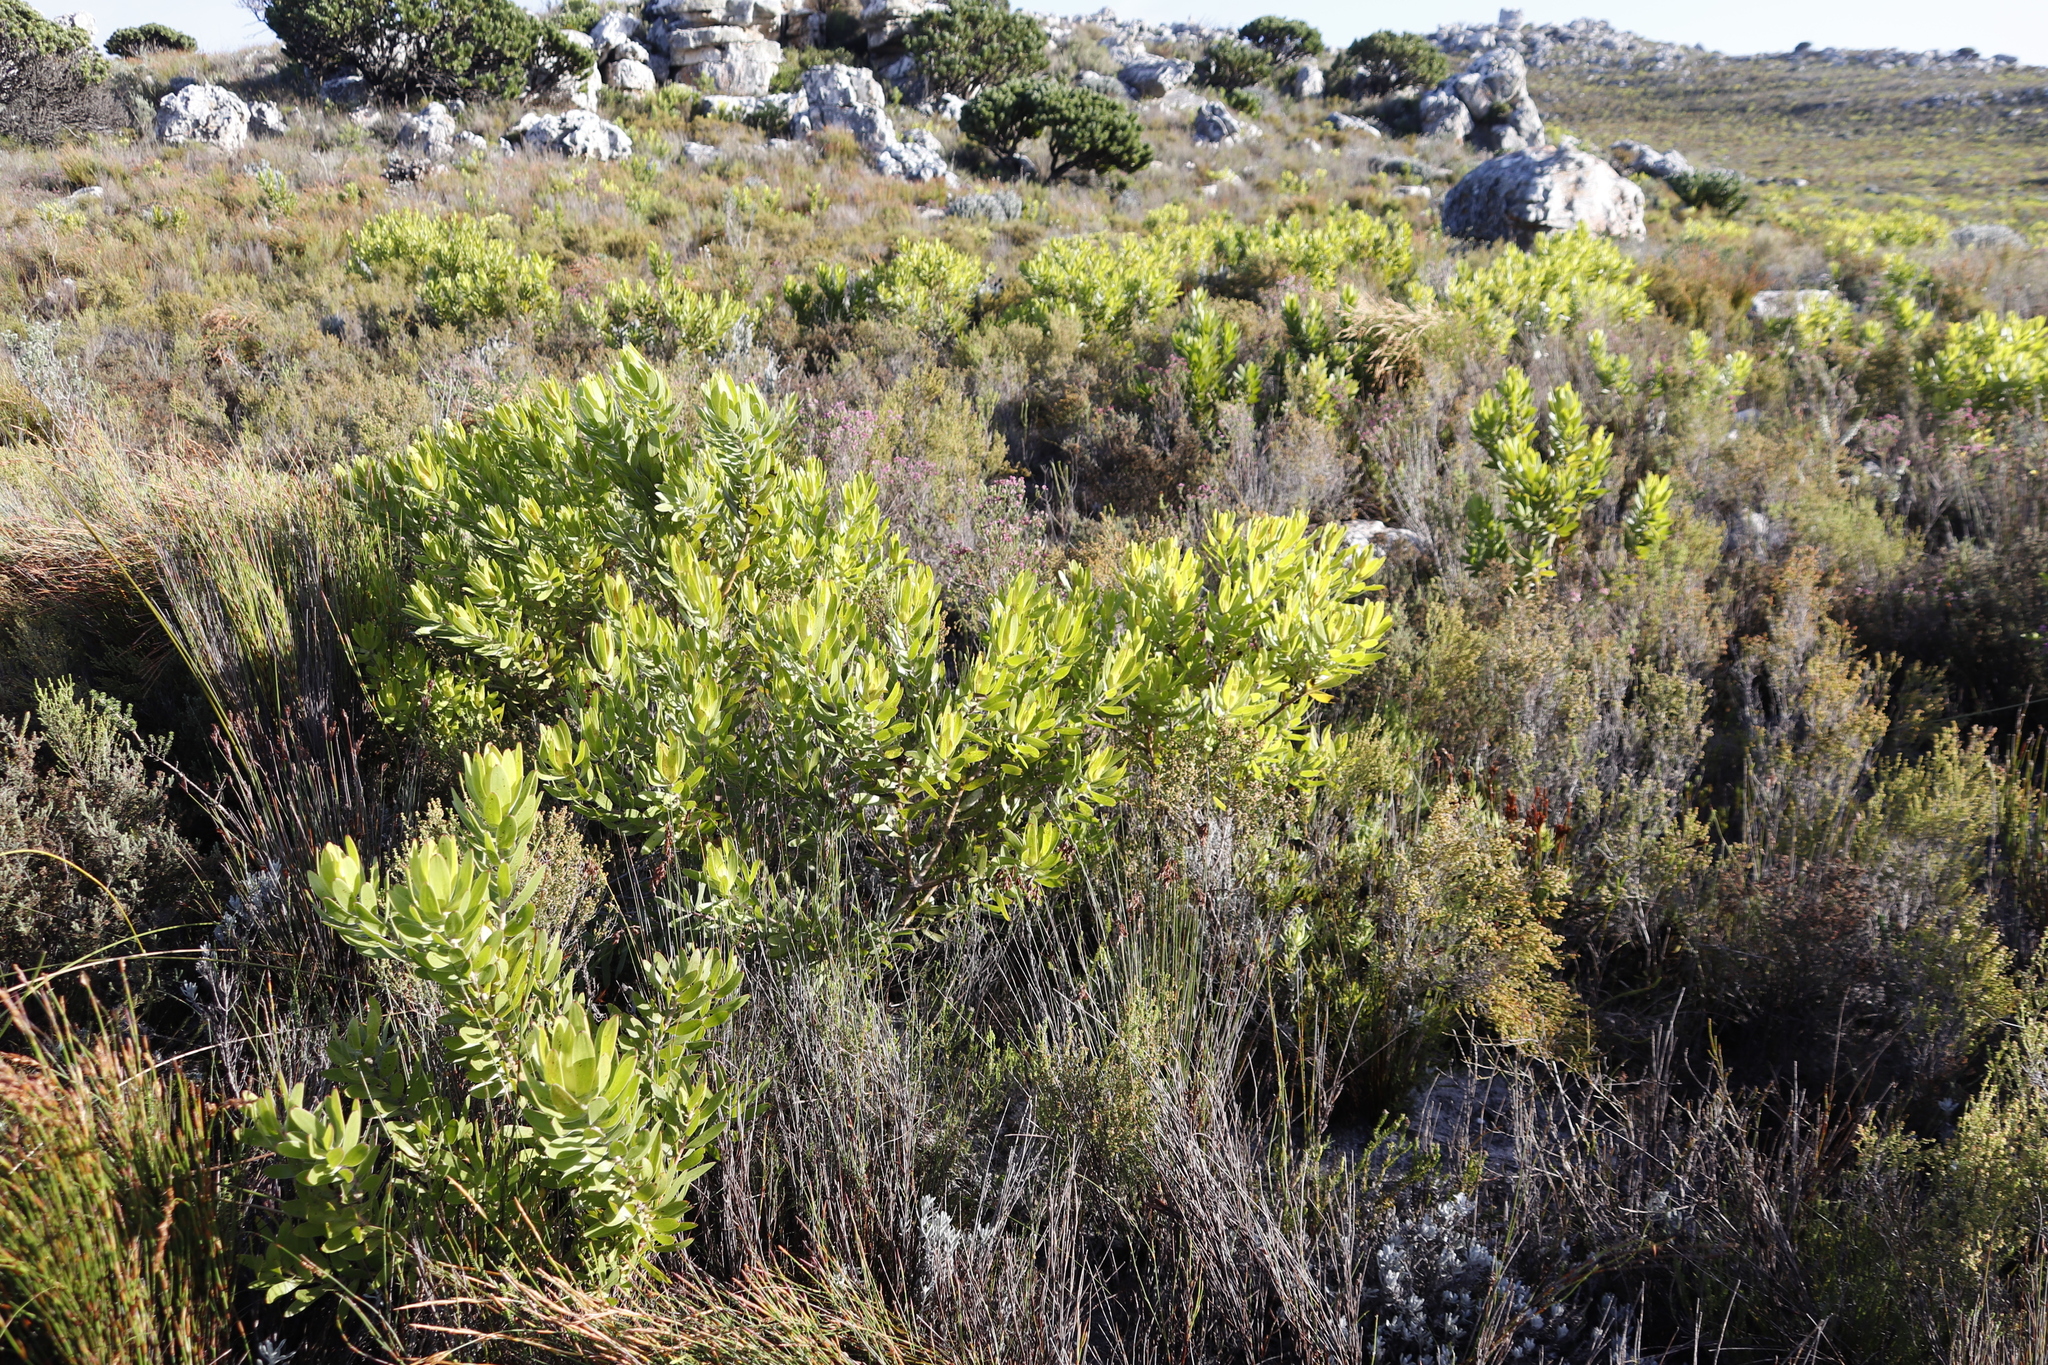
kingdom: Plantae
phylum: Tracheophyta
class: Magnoliopsida
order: Ericales
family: Ericaceae
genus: Erica
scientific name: Erica corifolia
